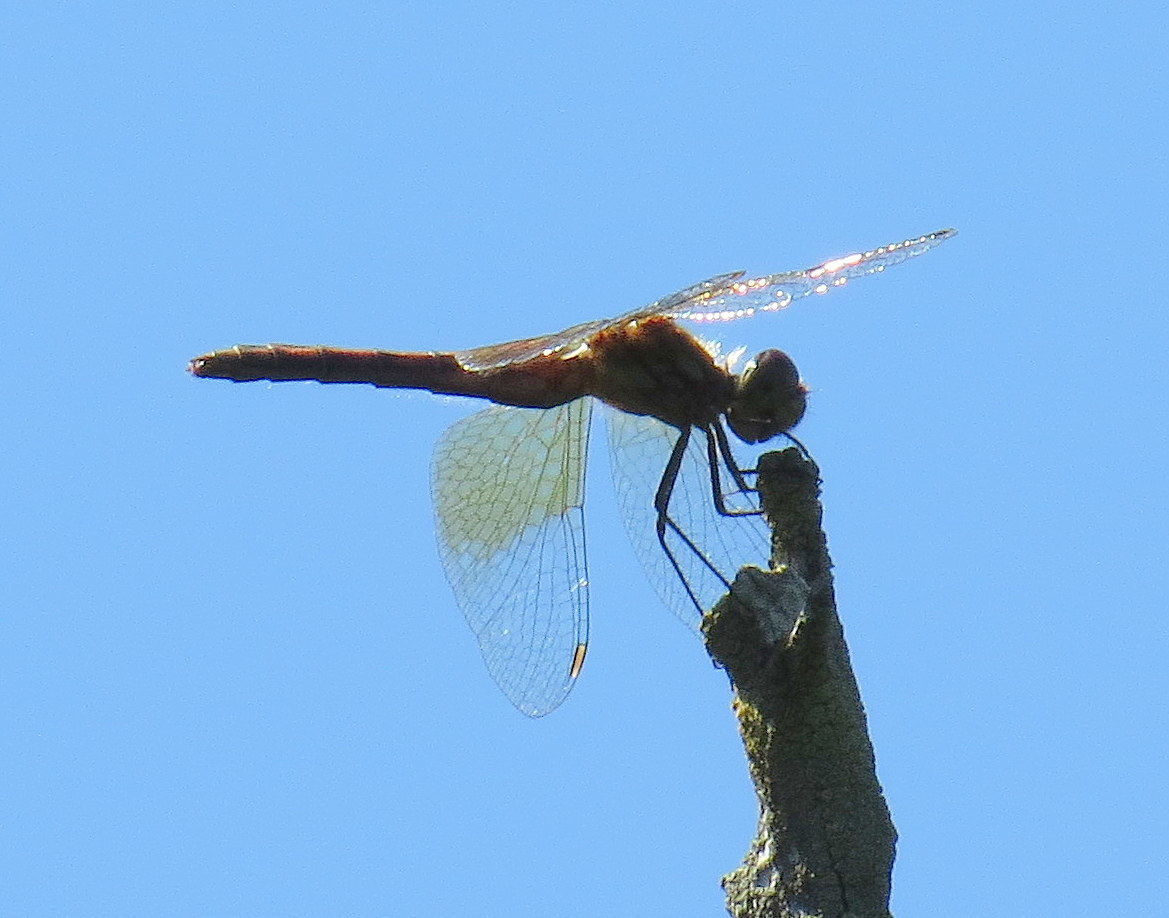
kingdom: Animalia
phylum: Arthropoda
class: Insecta
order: Odonata
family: Libellulidae
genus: Sympetrum
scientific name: Sympetrum semicinctum
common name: Band-winged meadowhawk
